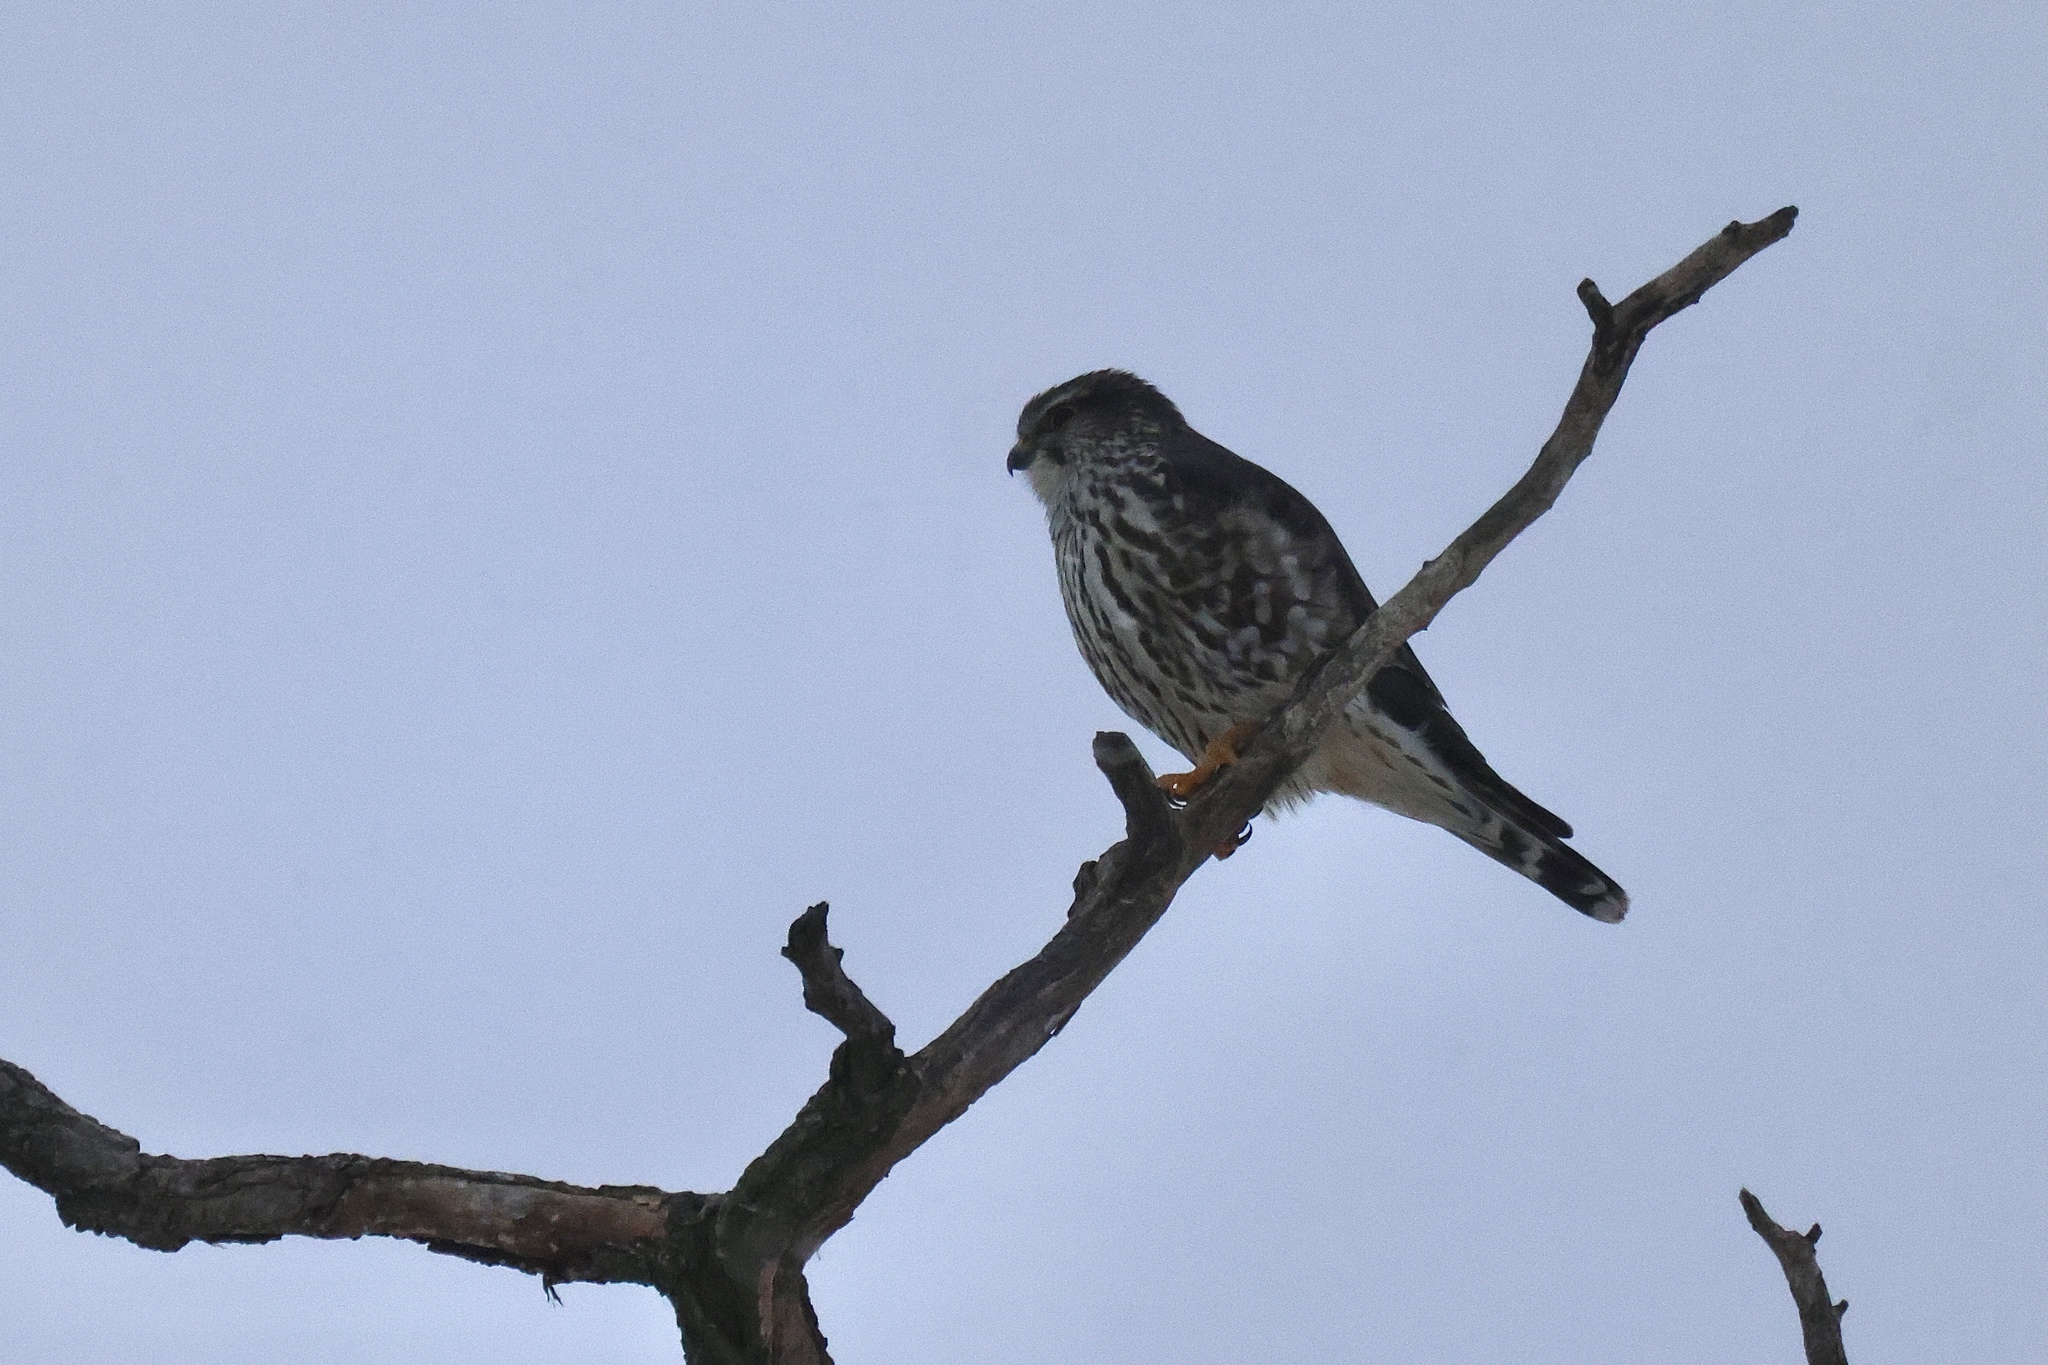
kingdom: Animalia
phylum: Chordata
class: Aves
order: Falconiformes
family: Falconidae
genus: Falco
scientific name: Falco columbarius
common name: Merlin
